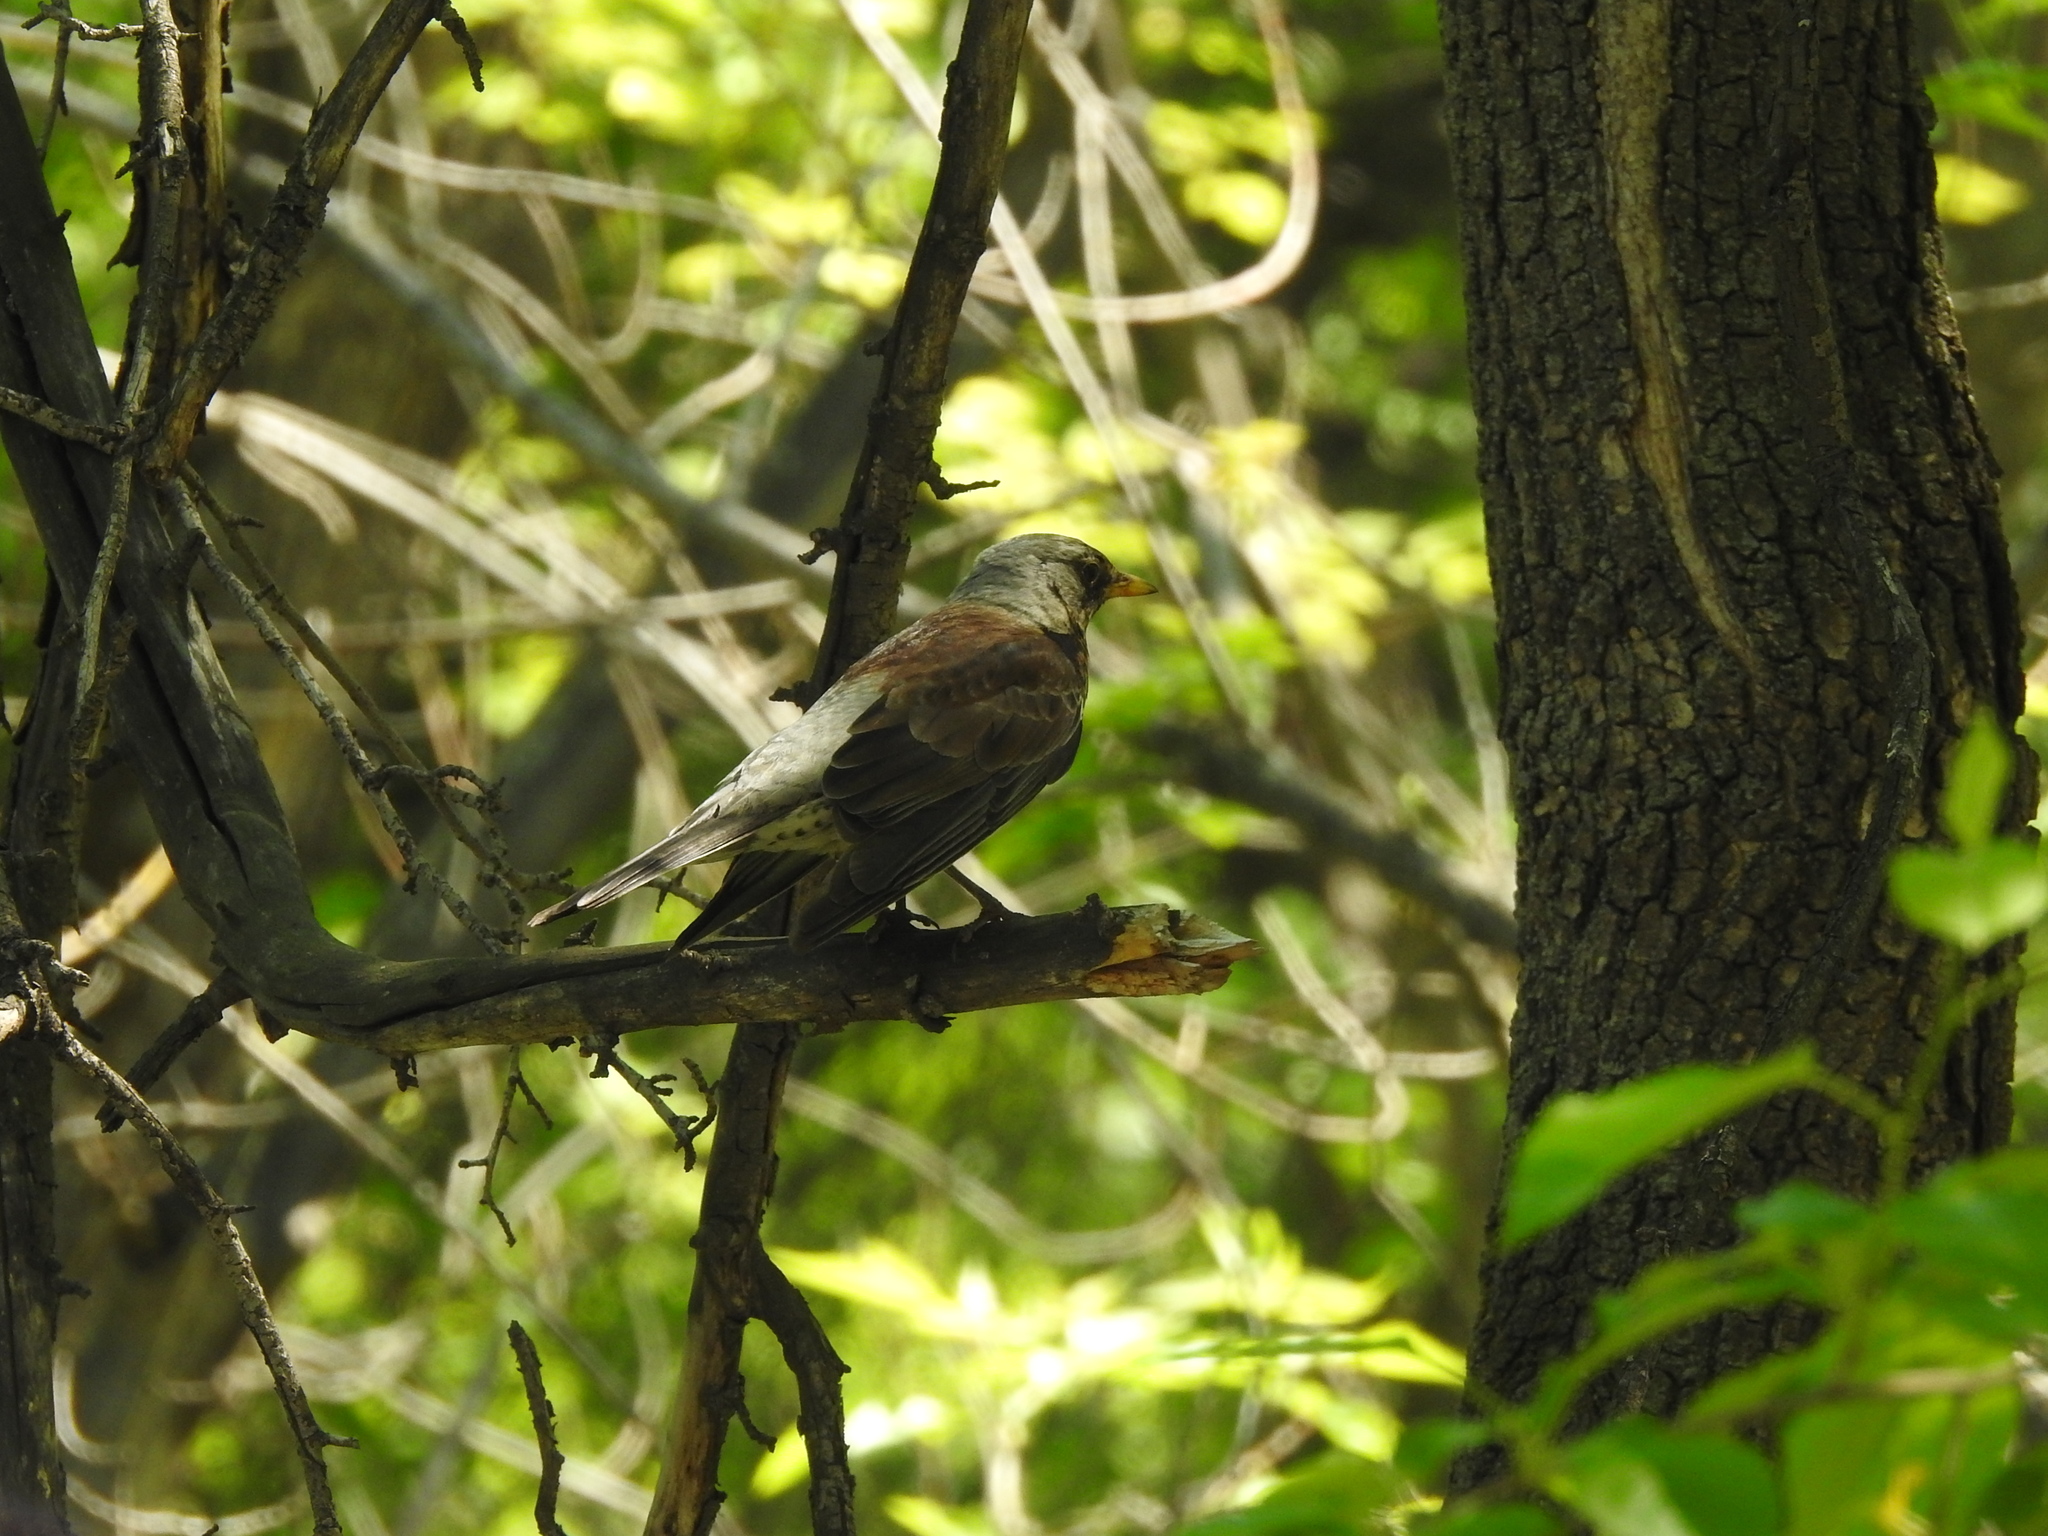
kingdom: Animalia
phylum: Chordata
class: Aves
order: Passeriformes
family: Turdidae
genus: Turdus
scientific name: Turdus pilaris
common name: Fieldfare
